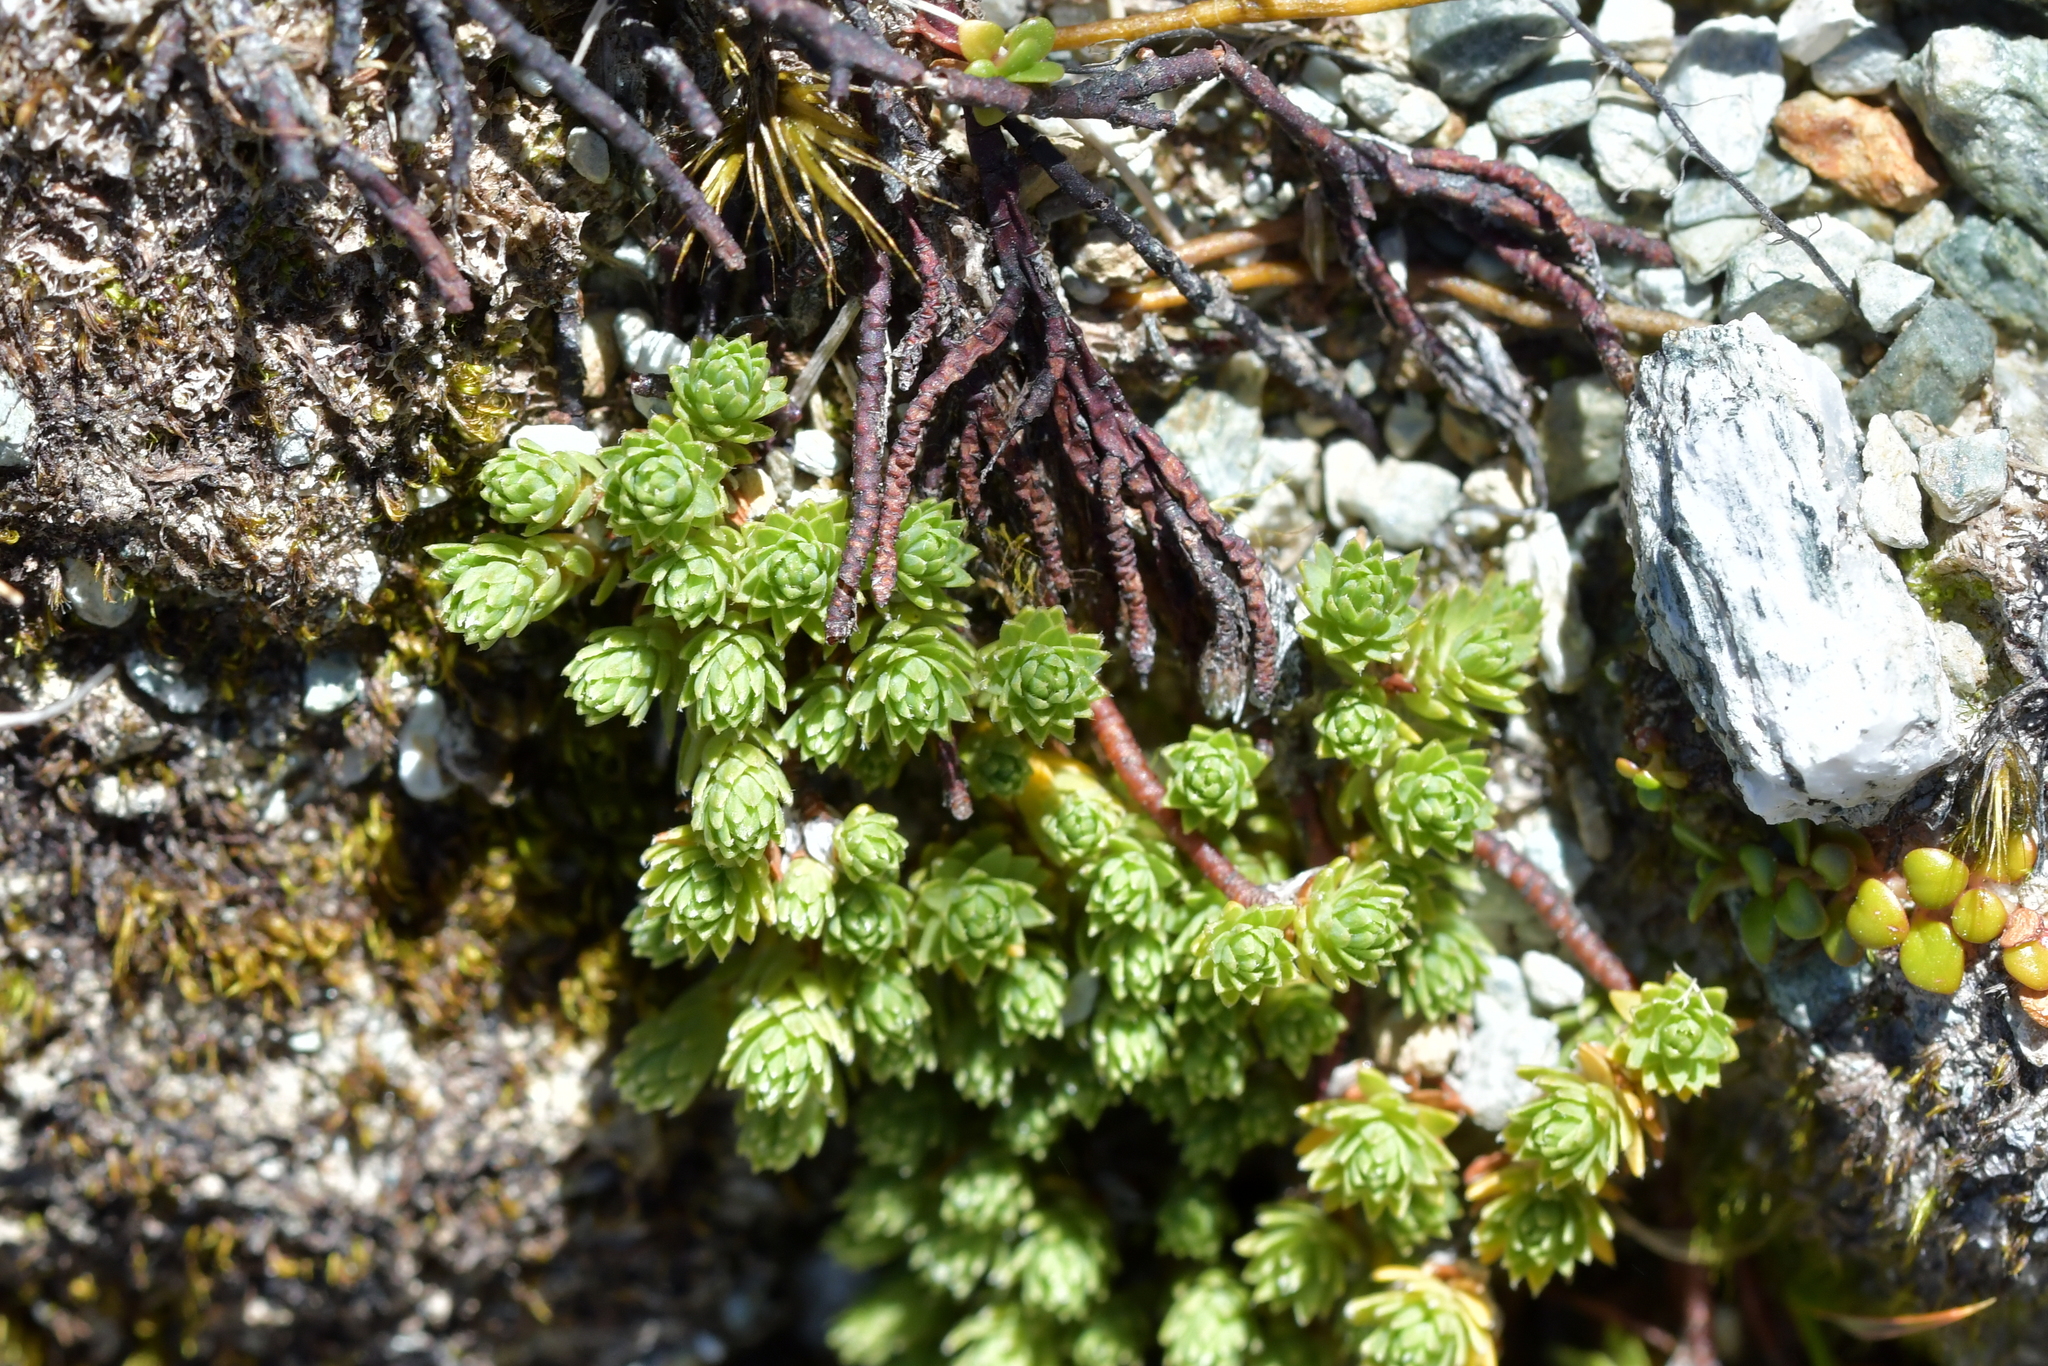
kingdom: Plantae
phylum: Tracheophyta
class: Magnoliopsida
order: Malvales
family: Thymelaeaceae
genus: Kelleria
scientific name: Kelleria paludosa
